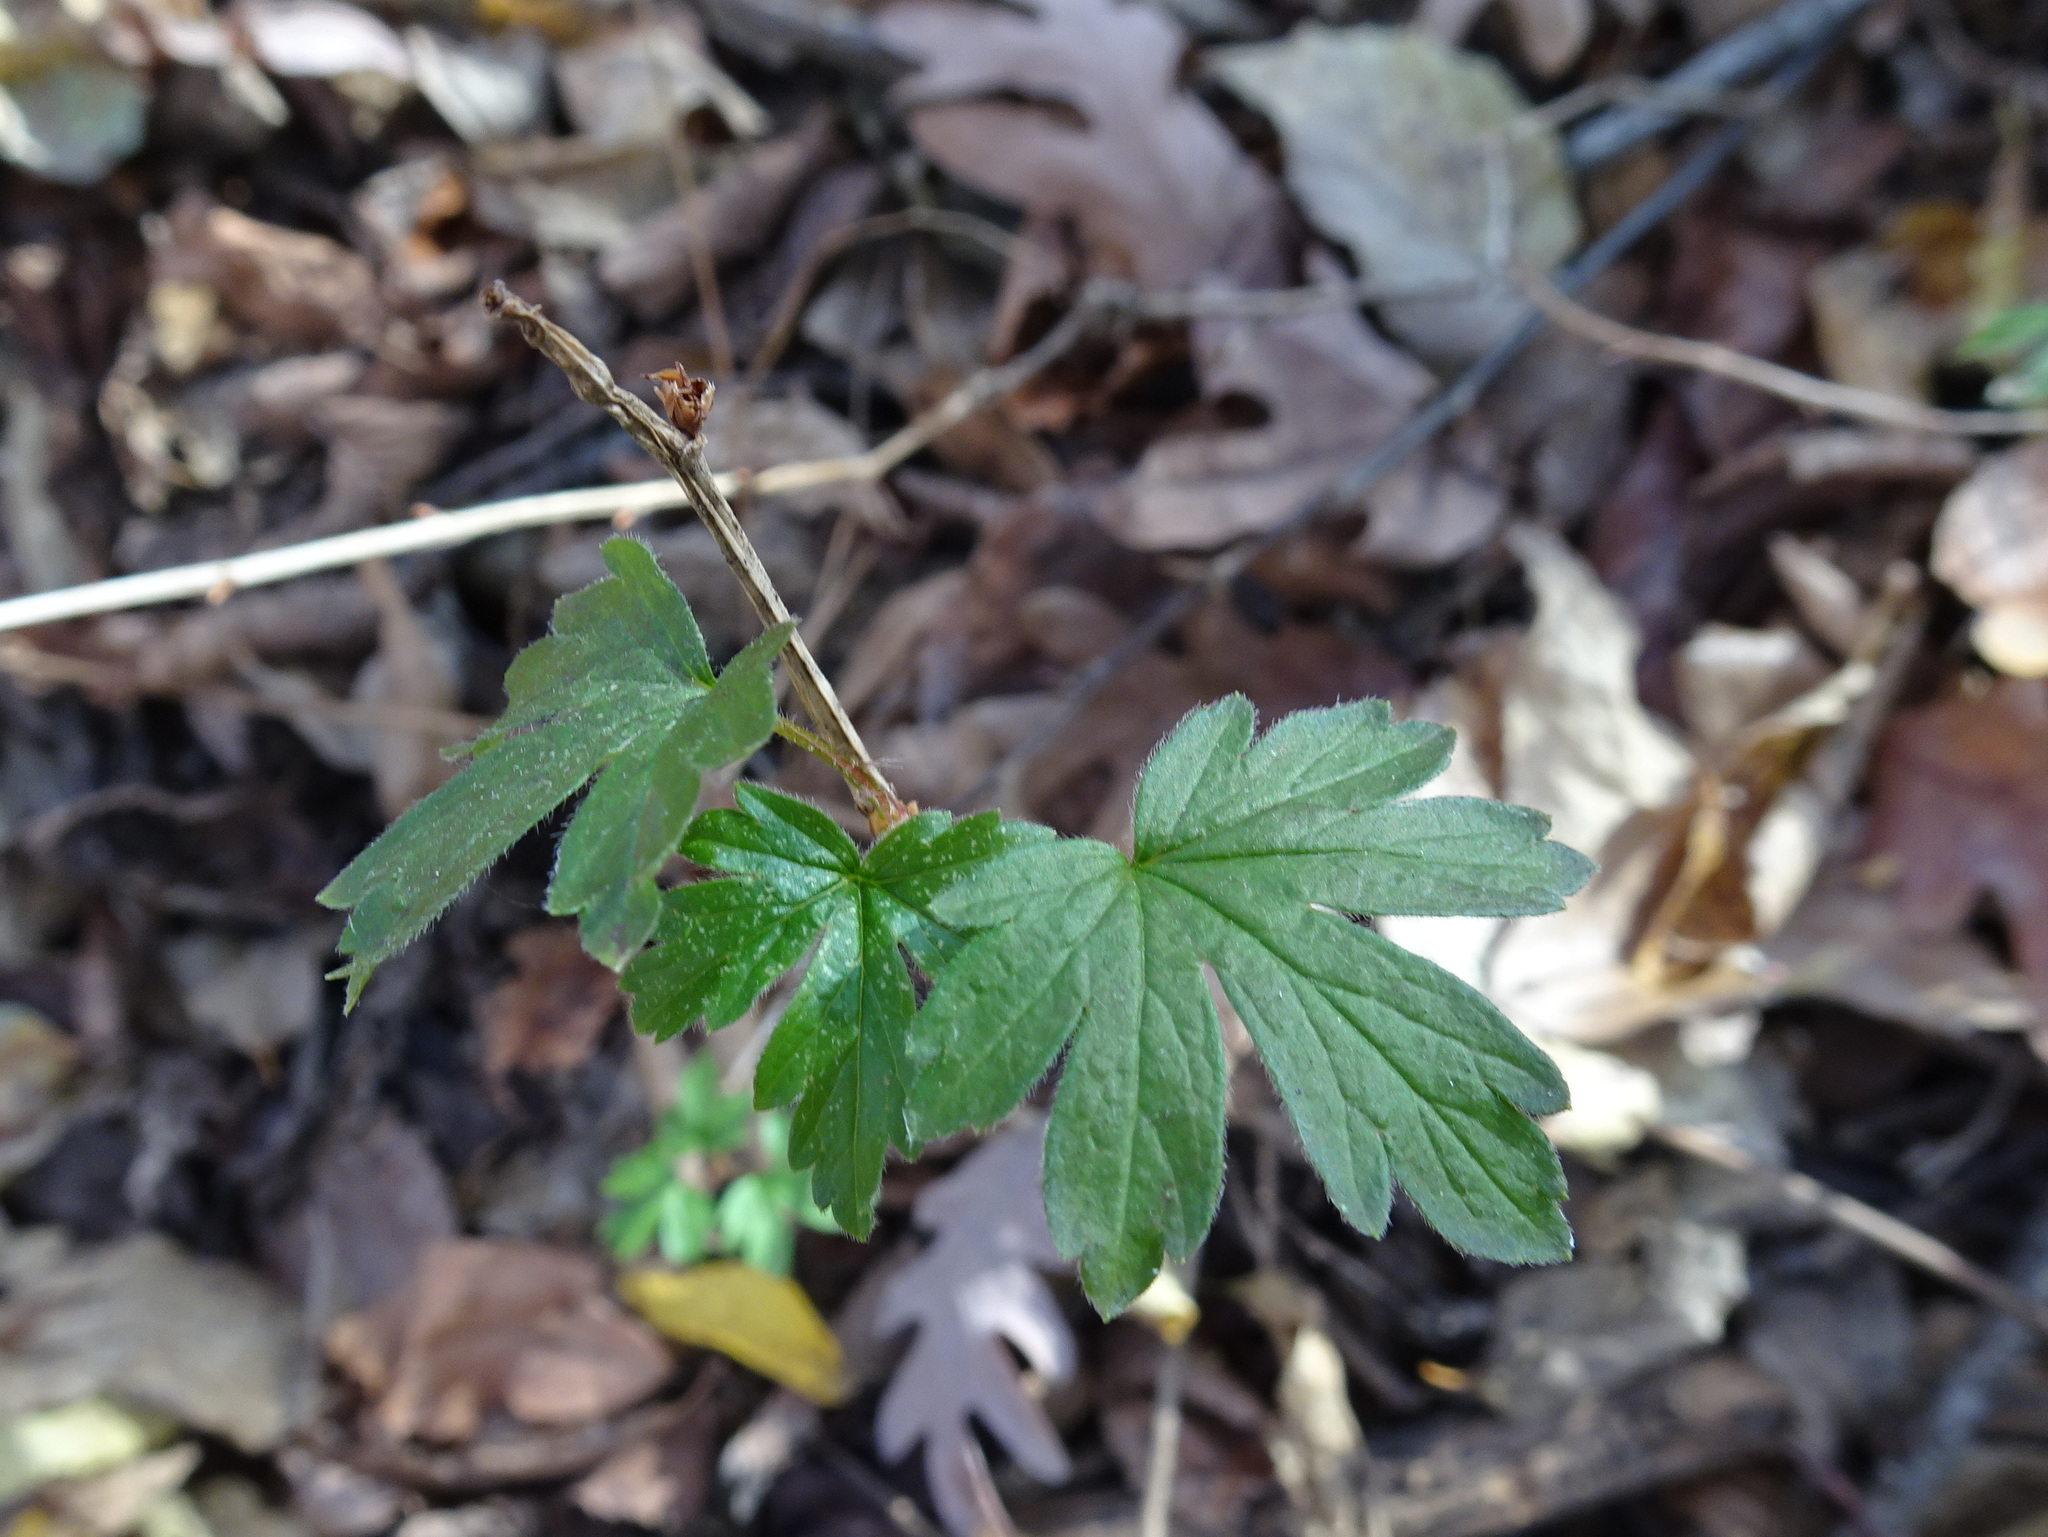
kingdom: Plantae
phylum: Tracheophyta
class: Magnoliopsida
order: Saxifragales
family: Grossulariaceae
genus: Ribes
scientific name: Ribes missouriense
